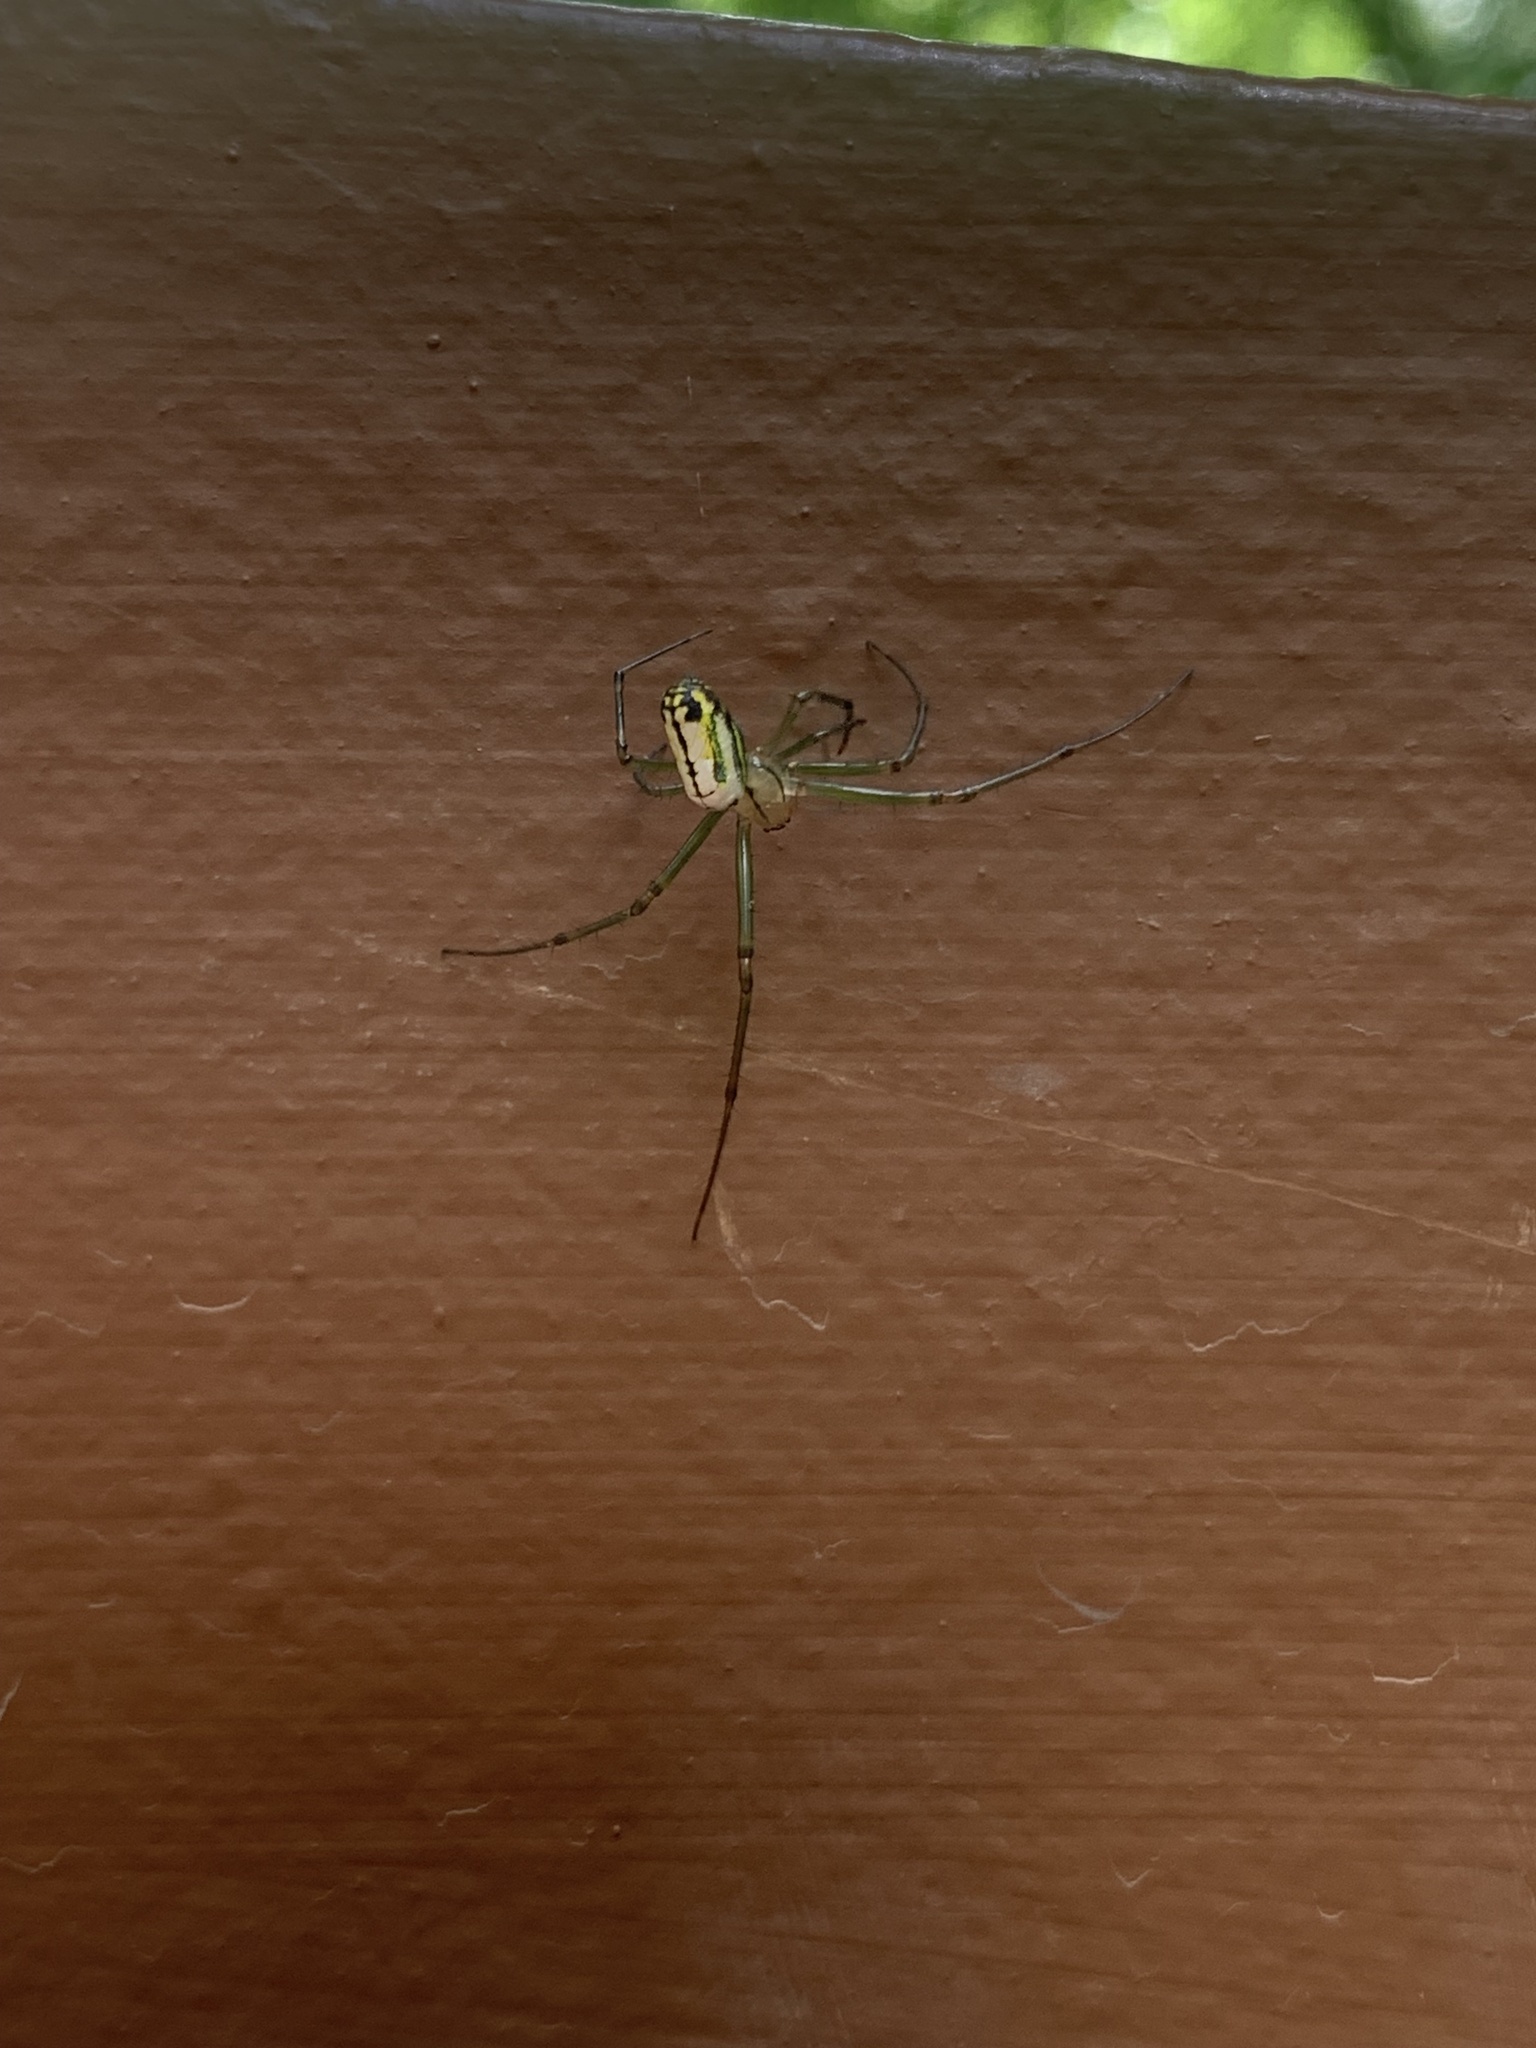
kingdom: Animalia
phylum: Arthropoda
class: Arachnida
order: Araneae
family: Tetragnathidae
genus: Leucauge
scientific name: Leucauge venusta
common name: Longjawed orb weavers
